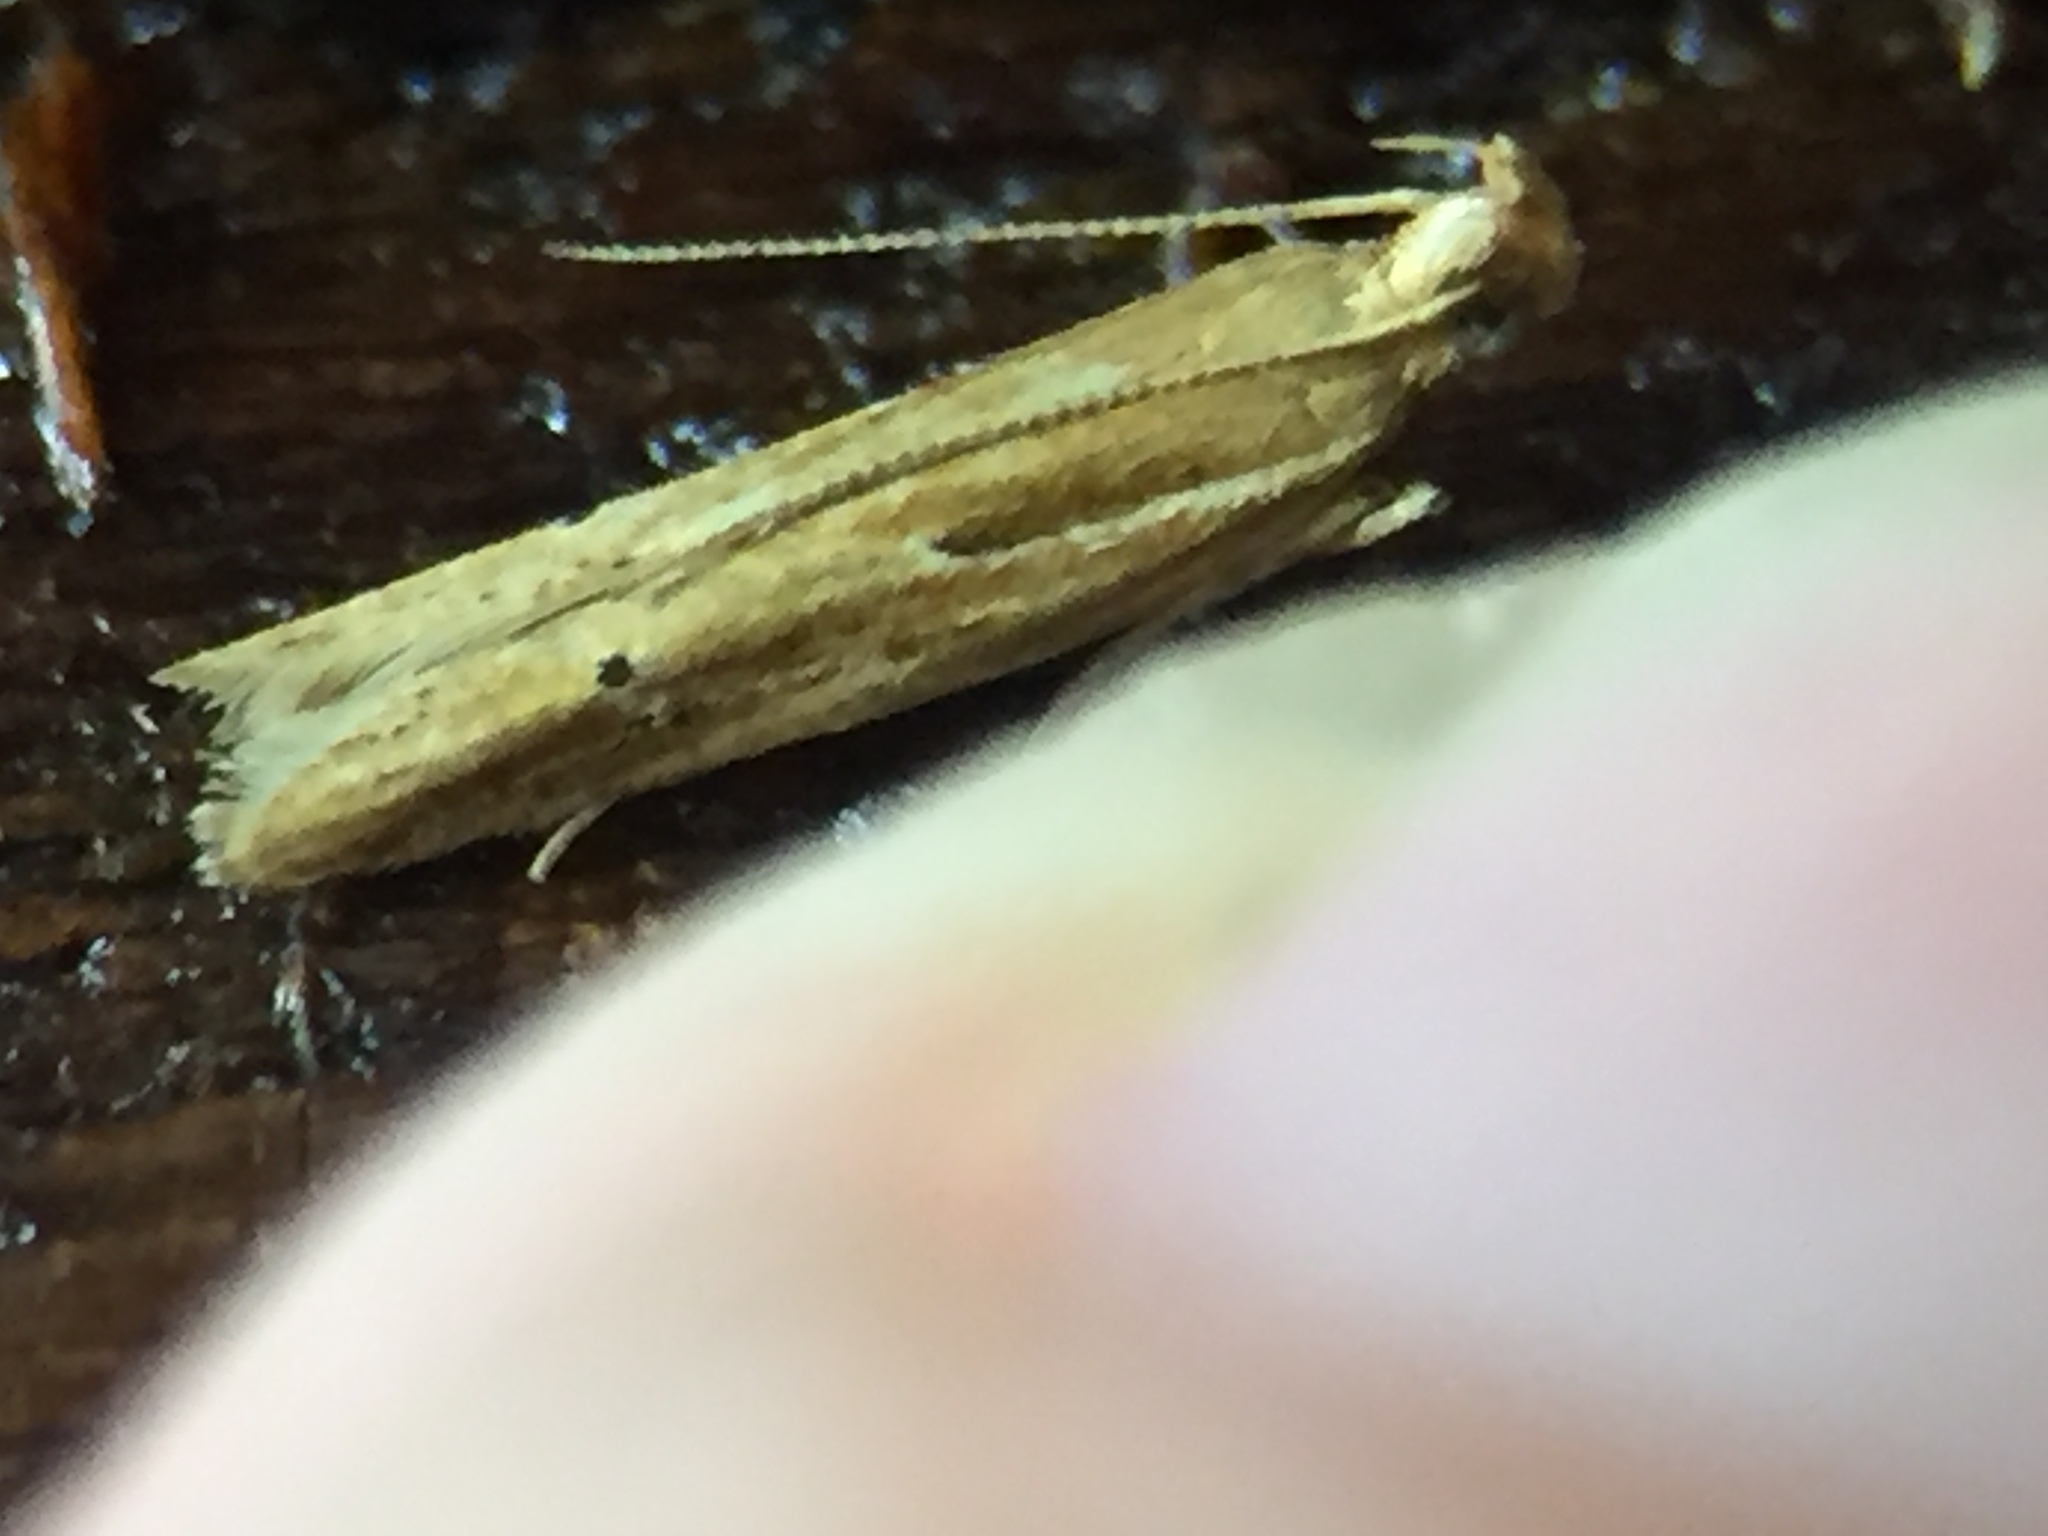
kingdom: Animalia
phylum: Arthropoda
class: Insecta
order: Lepidoptera
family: Depressariidae
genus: Eutorna
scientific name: Eutorna symmorpha
